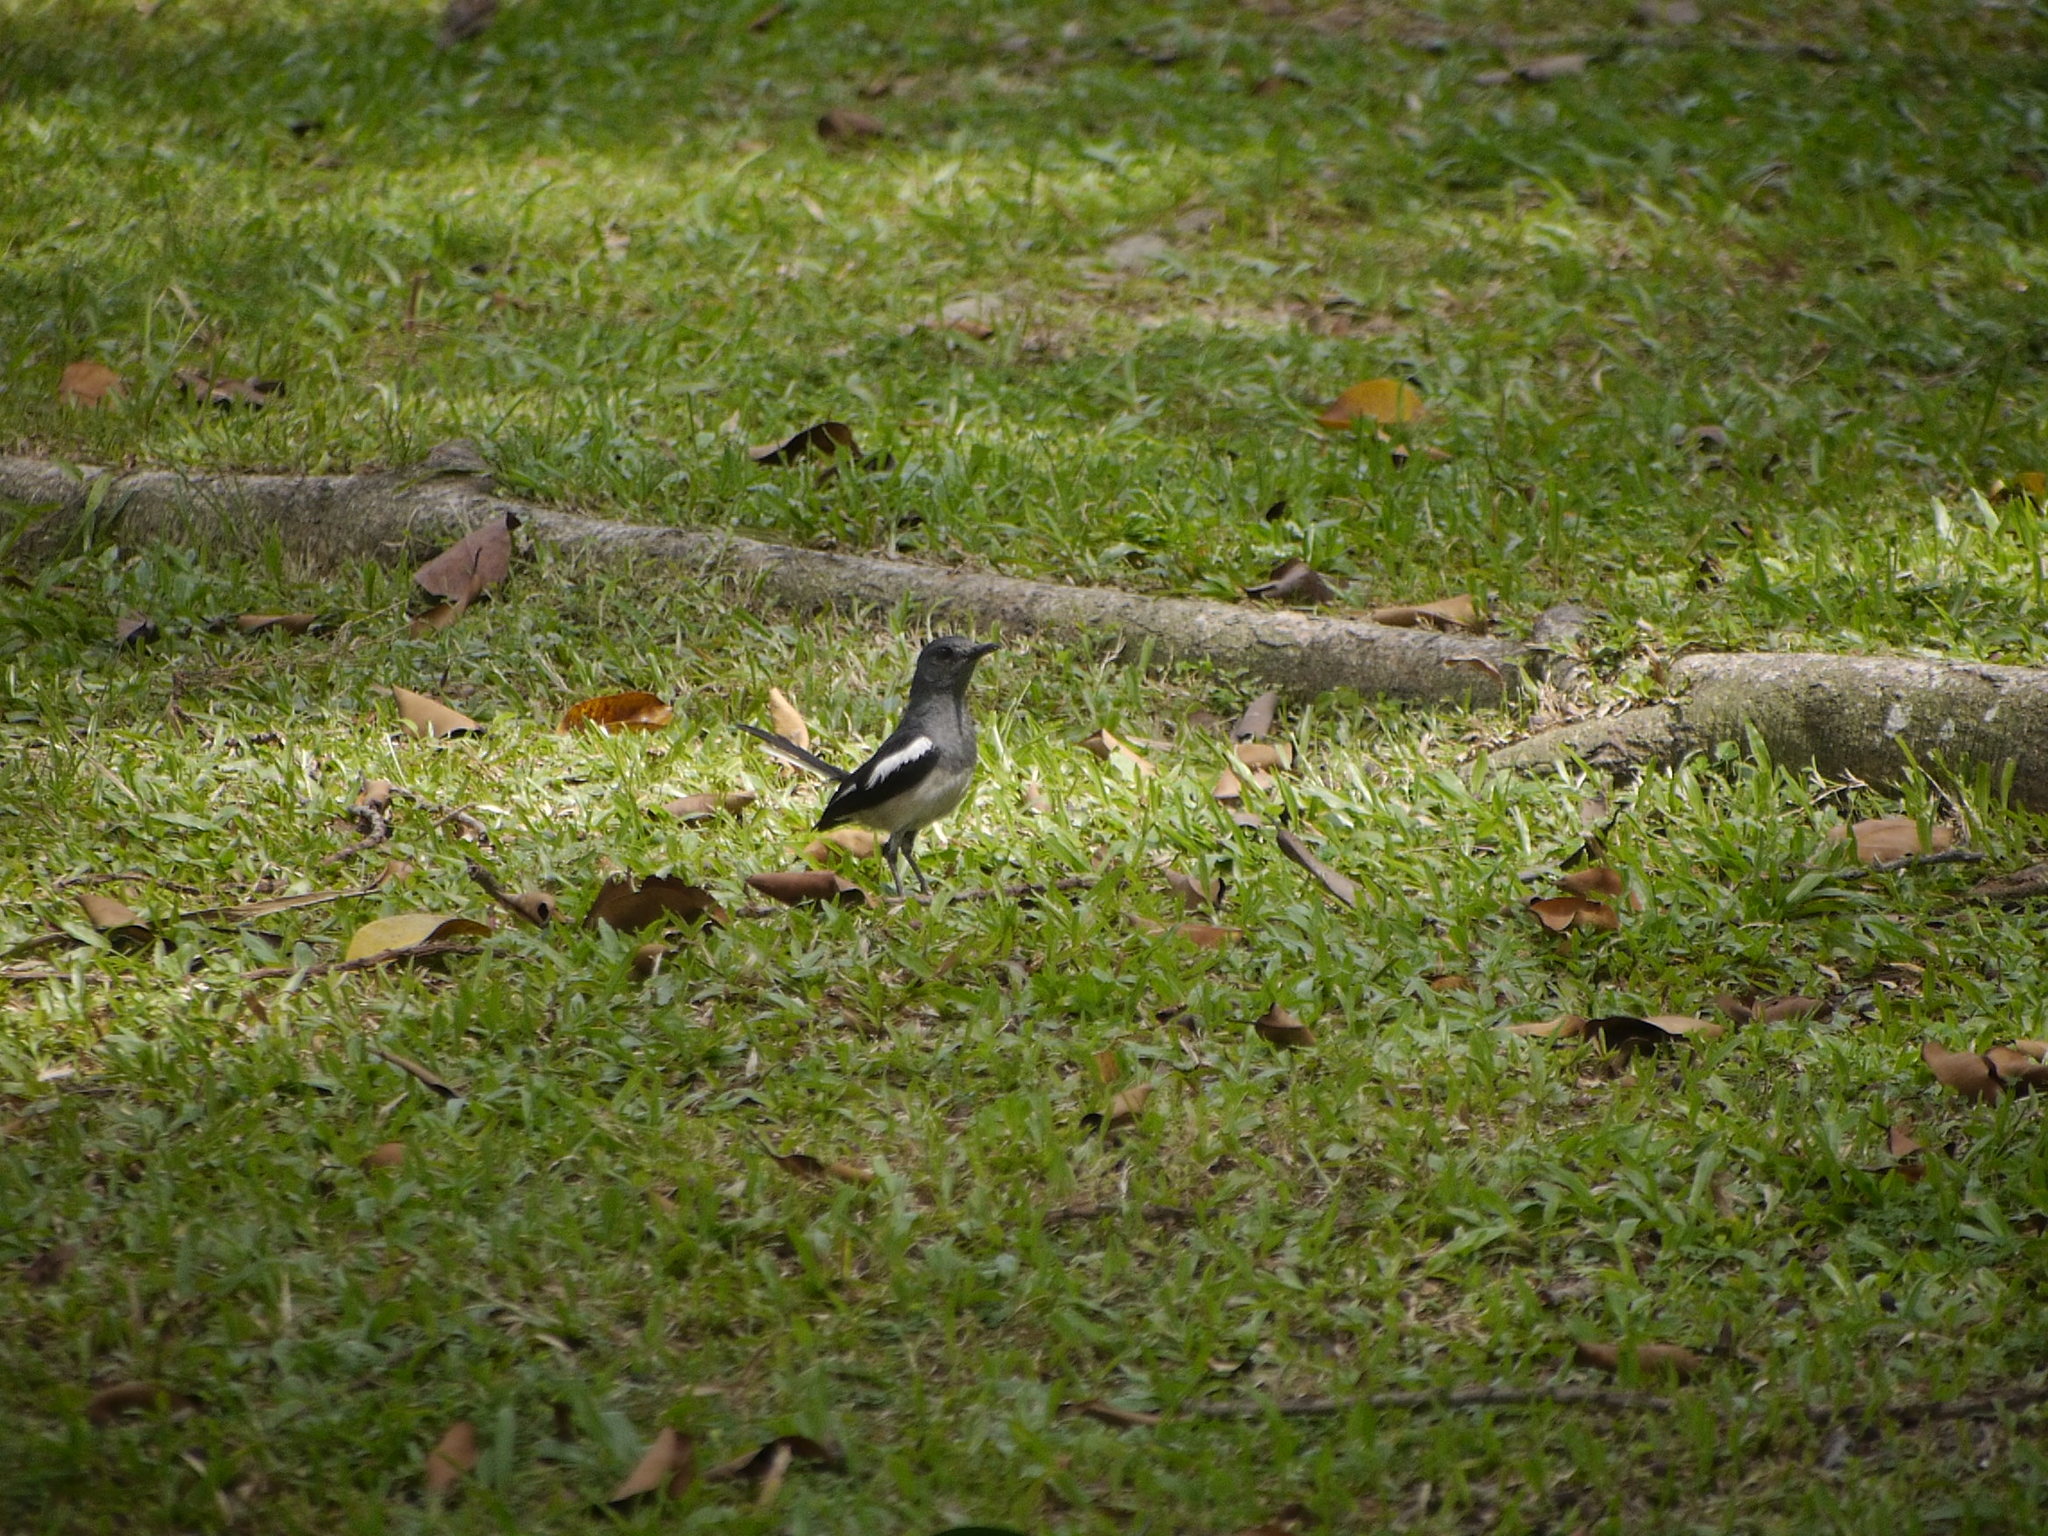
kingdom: Animalia
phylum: Chordata
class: Aves
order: Passeriformes
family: Muscicapidae
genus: Copsychus
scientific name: Copsychus saularis
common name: Oriental magpie-robin
